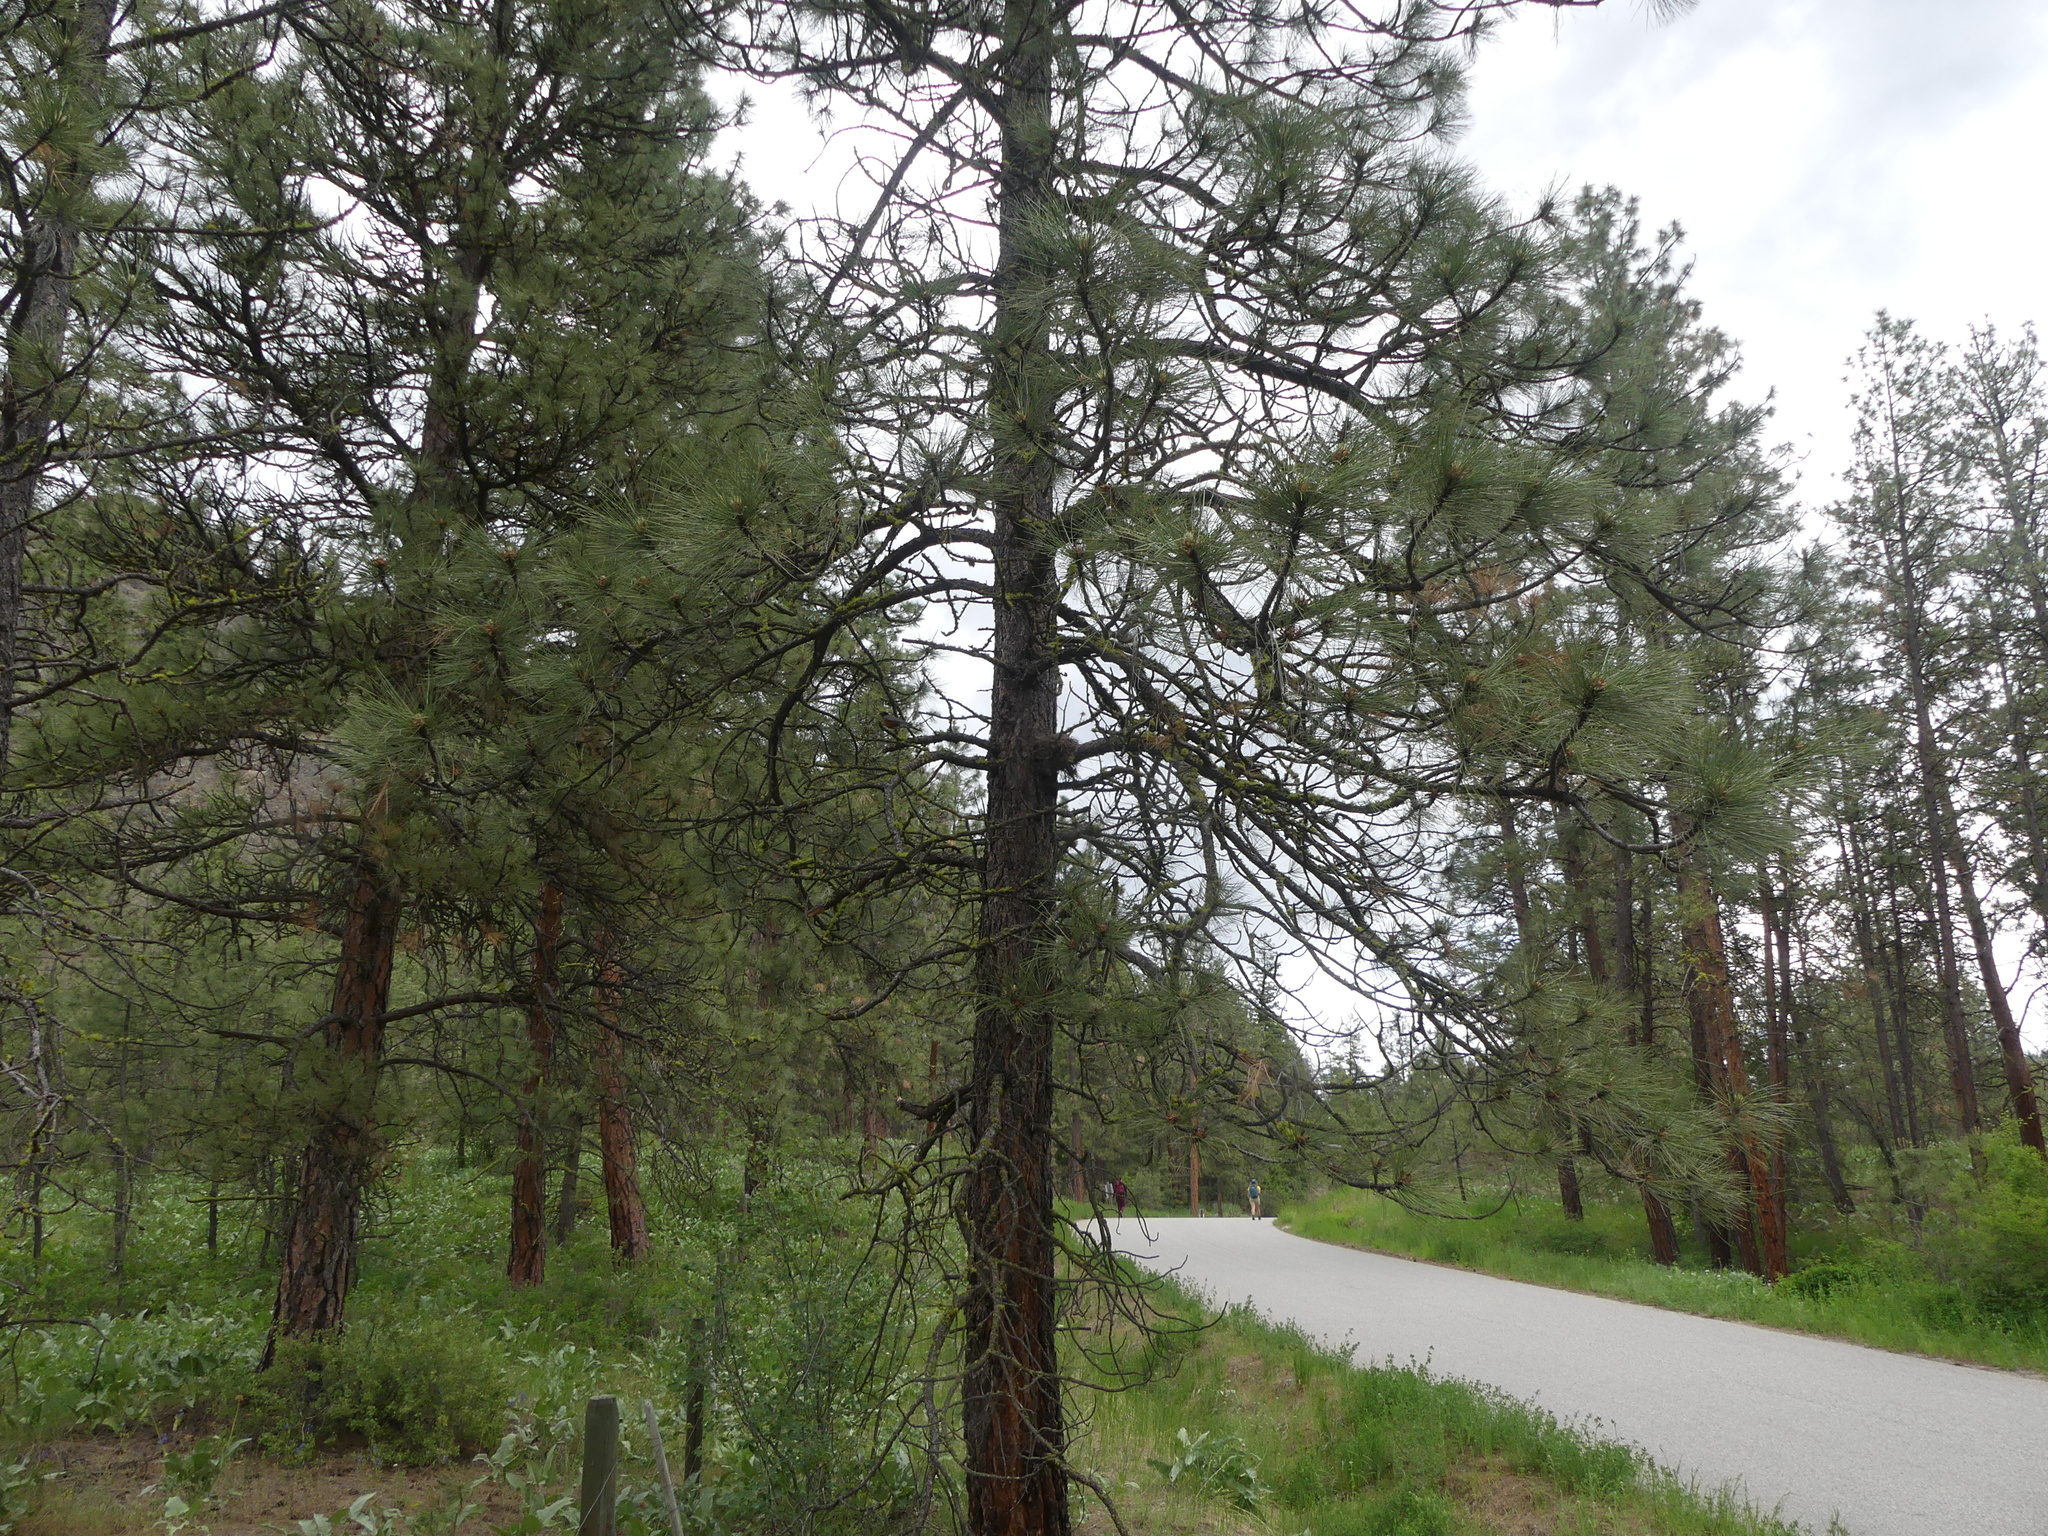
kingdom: Plantae
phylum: Tracheophyta
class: Pinopsida
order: Pinales
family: Pinaceae
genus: Pinus
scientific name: Pinus ponderosa
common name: Western yellow-pine
